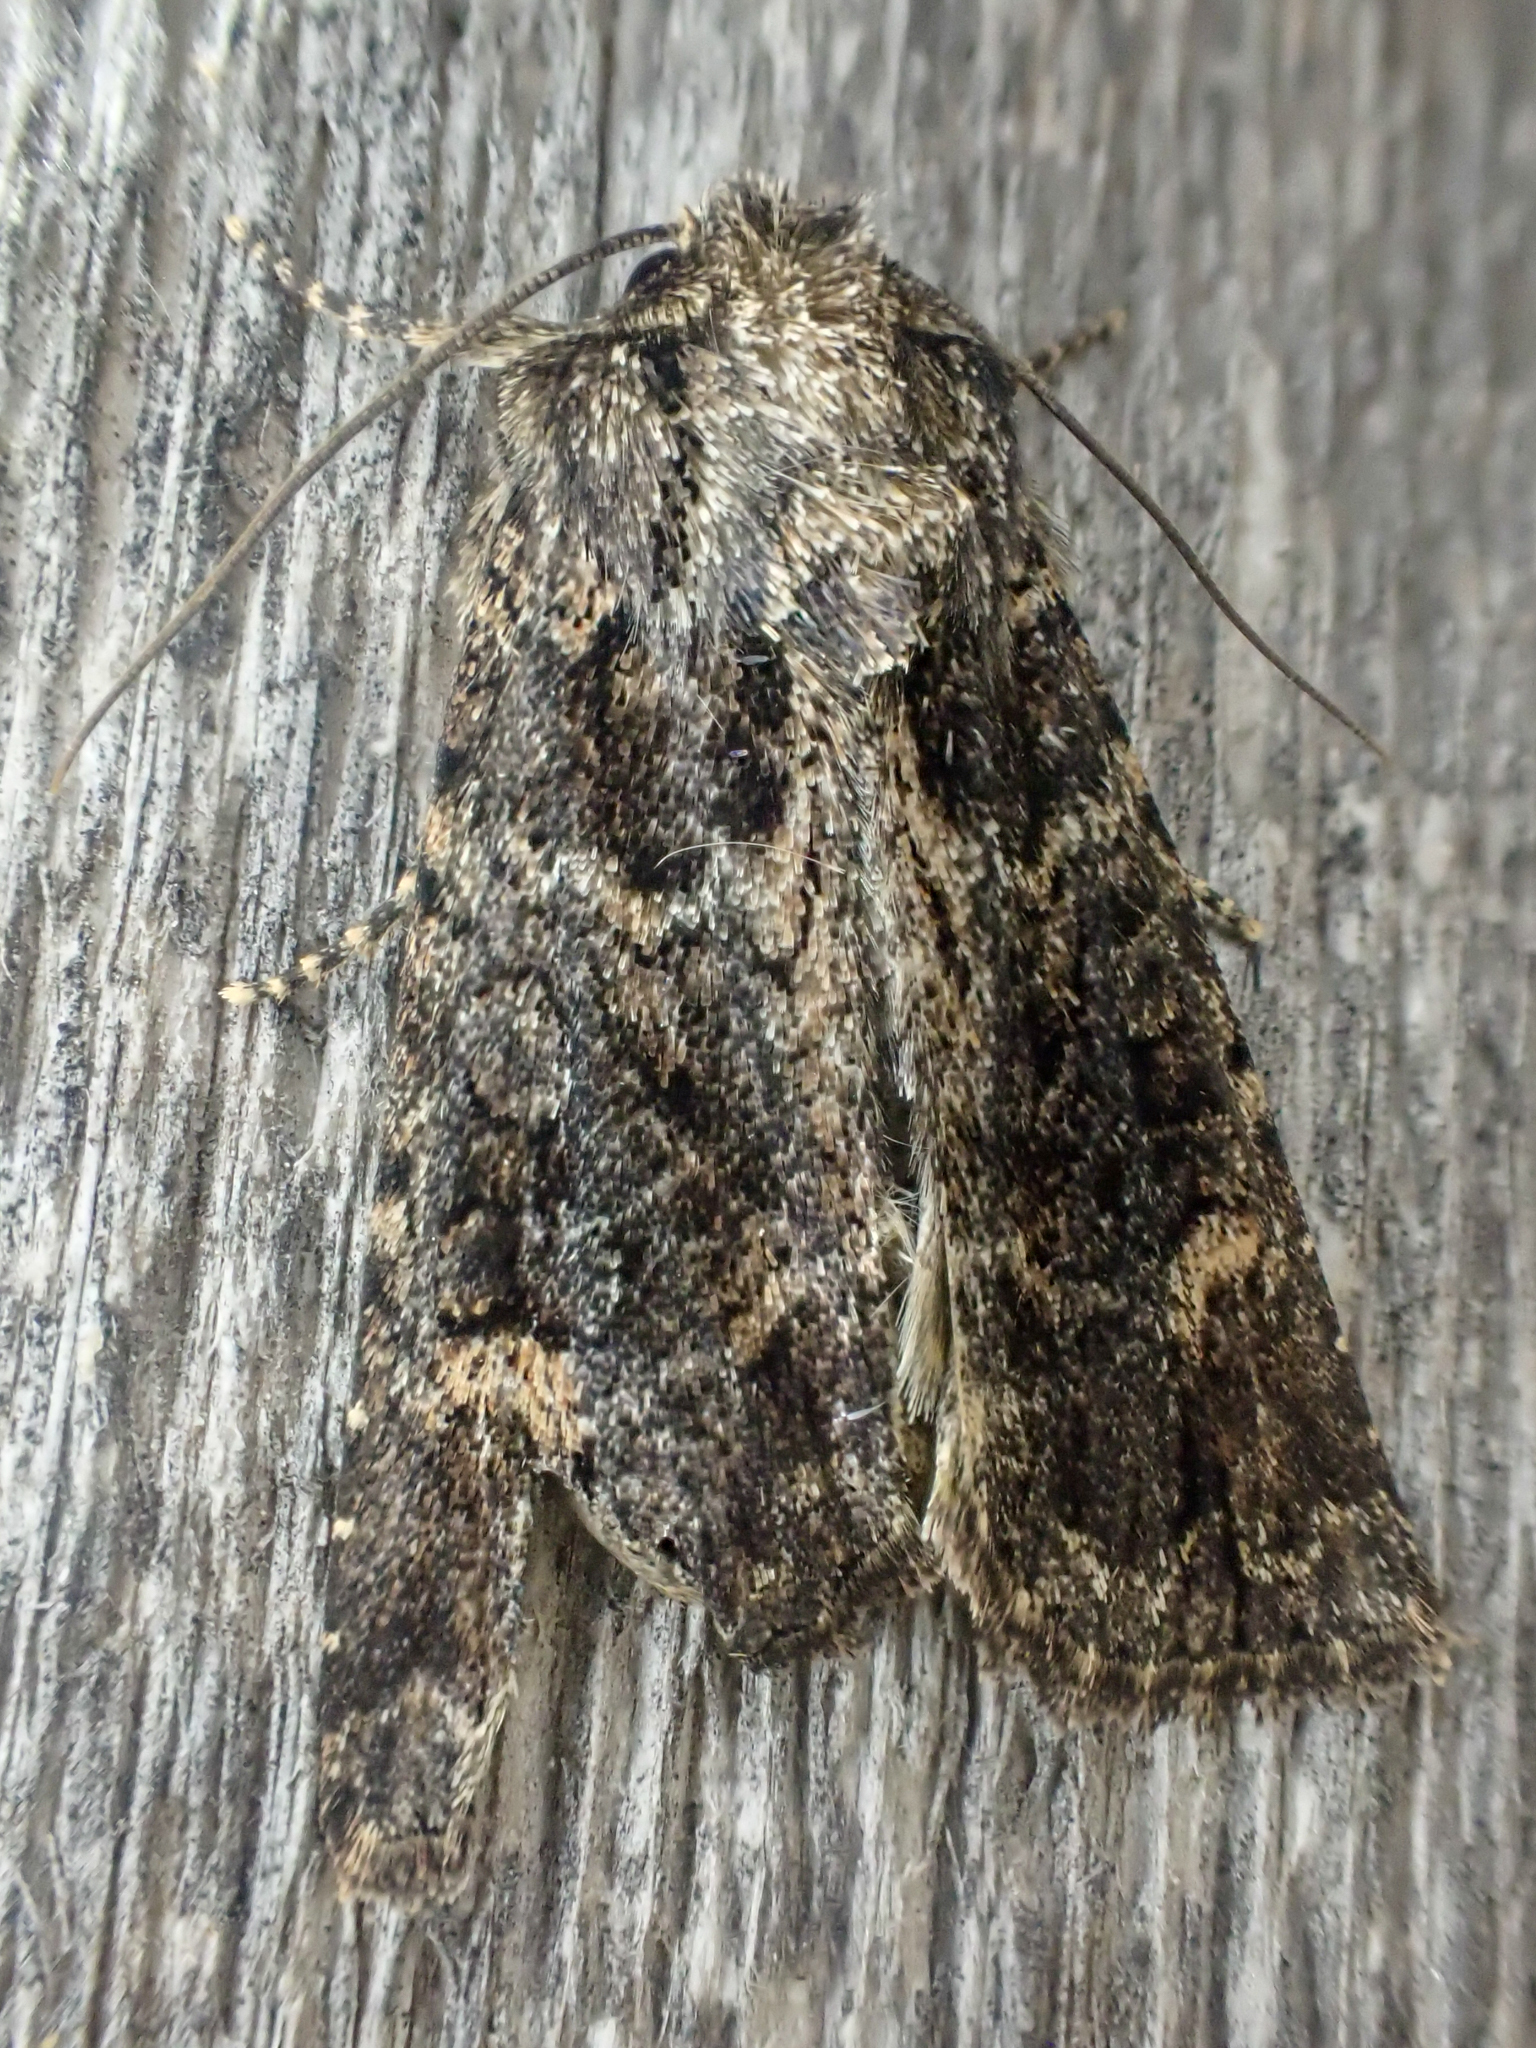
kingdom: Animalia
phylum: Arthropoda
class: Insecta
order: Lepidoptera
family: Noctuidae
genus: Aseptis
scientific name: Aseptis binotata
